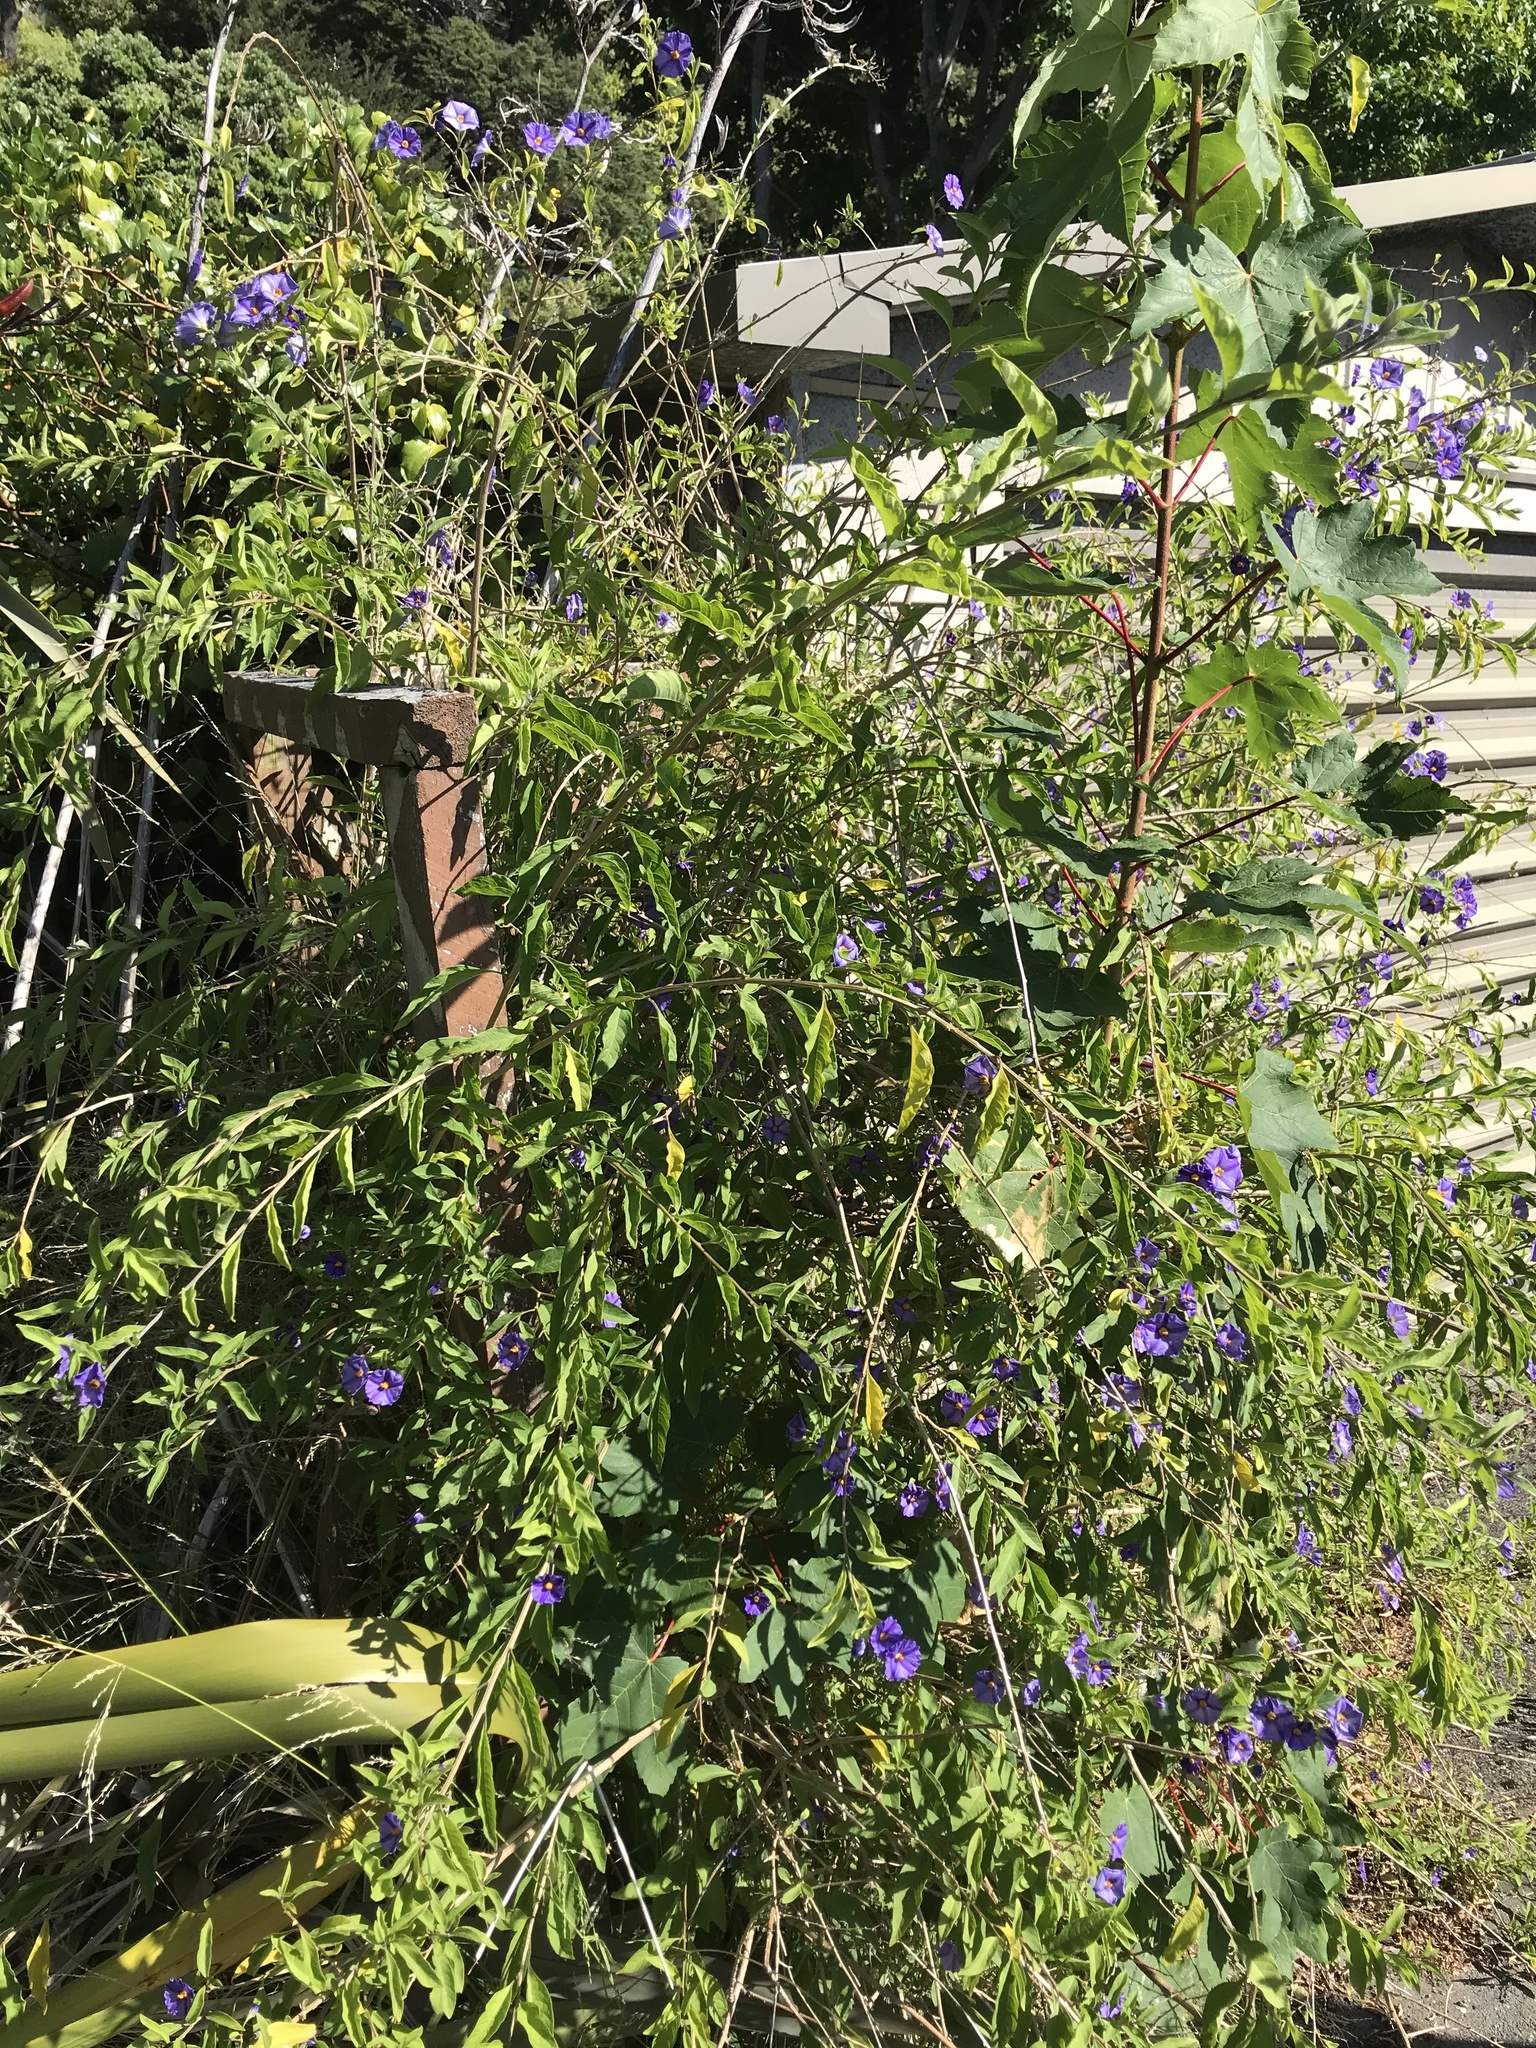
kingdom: Plantae
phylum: Tracheophyta
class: Magnoliopsida
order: Solanales
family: Solanaceae
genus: Lycianthes
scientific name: Lycianthes rantonnetii
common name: Blue potatobush
